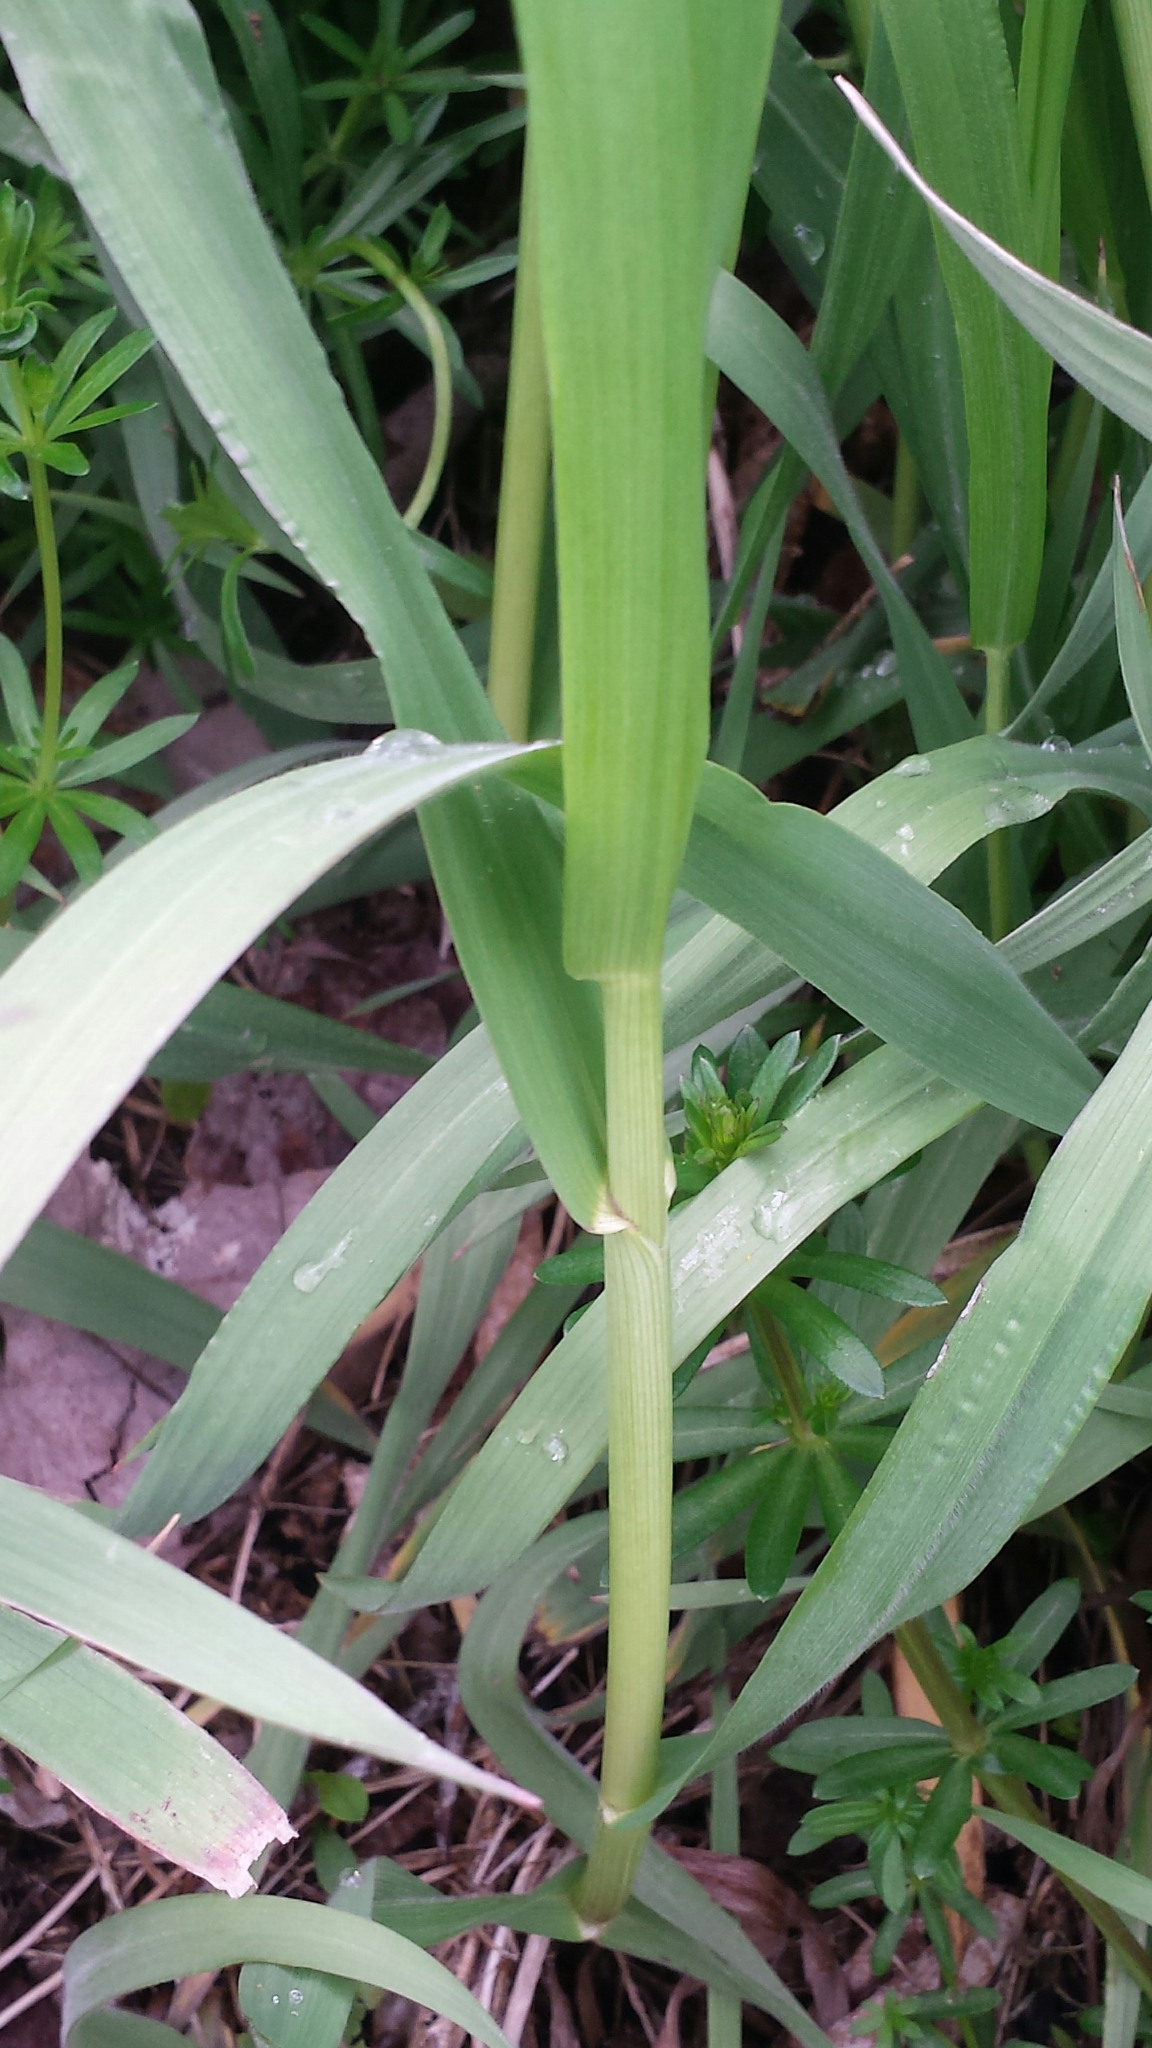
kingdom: Plantae
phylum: Tracheophyta
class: Liliopsida
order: Poales
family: Poaceae
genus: Phalaris
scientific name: Phalaris arundinacea
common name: Reed canary-grass
